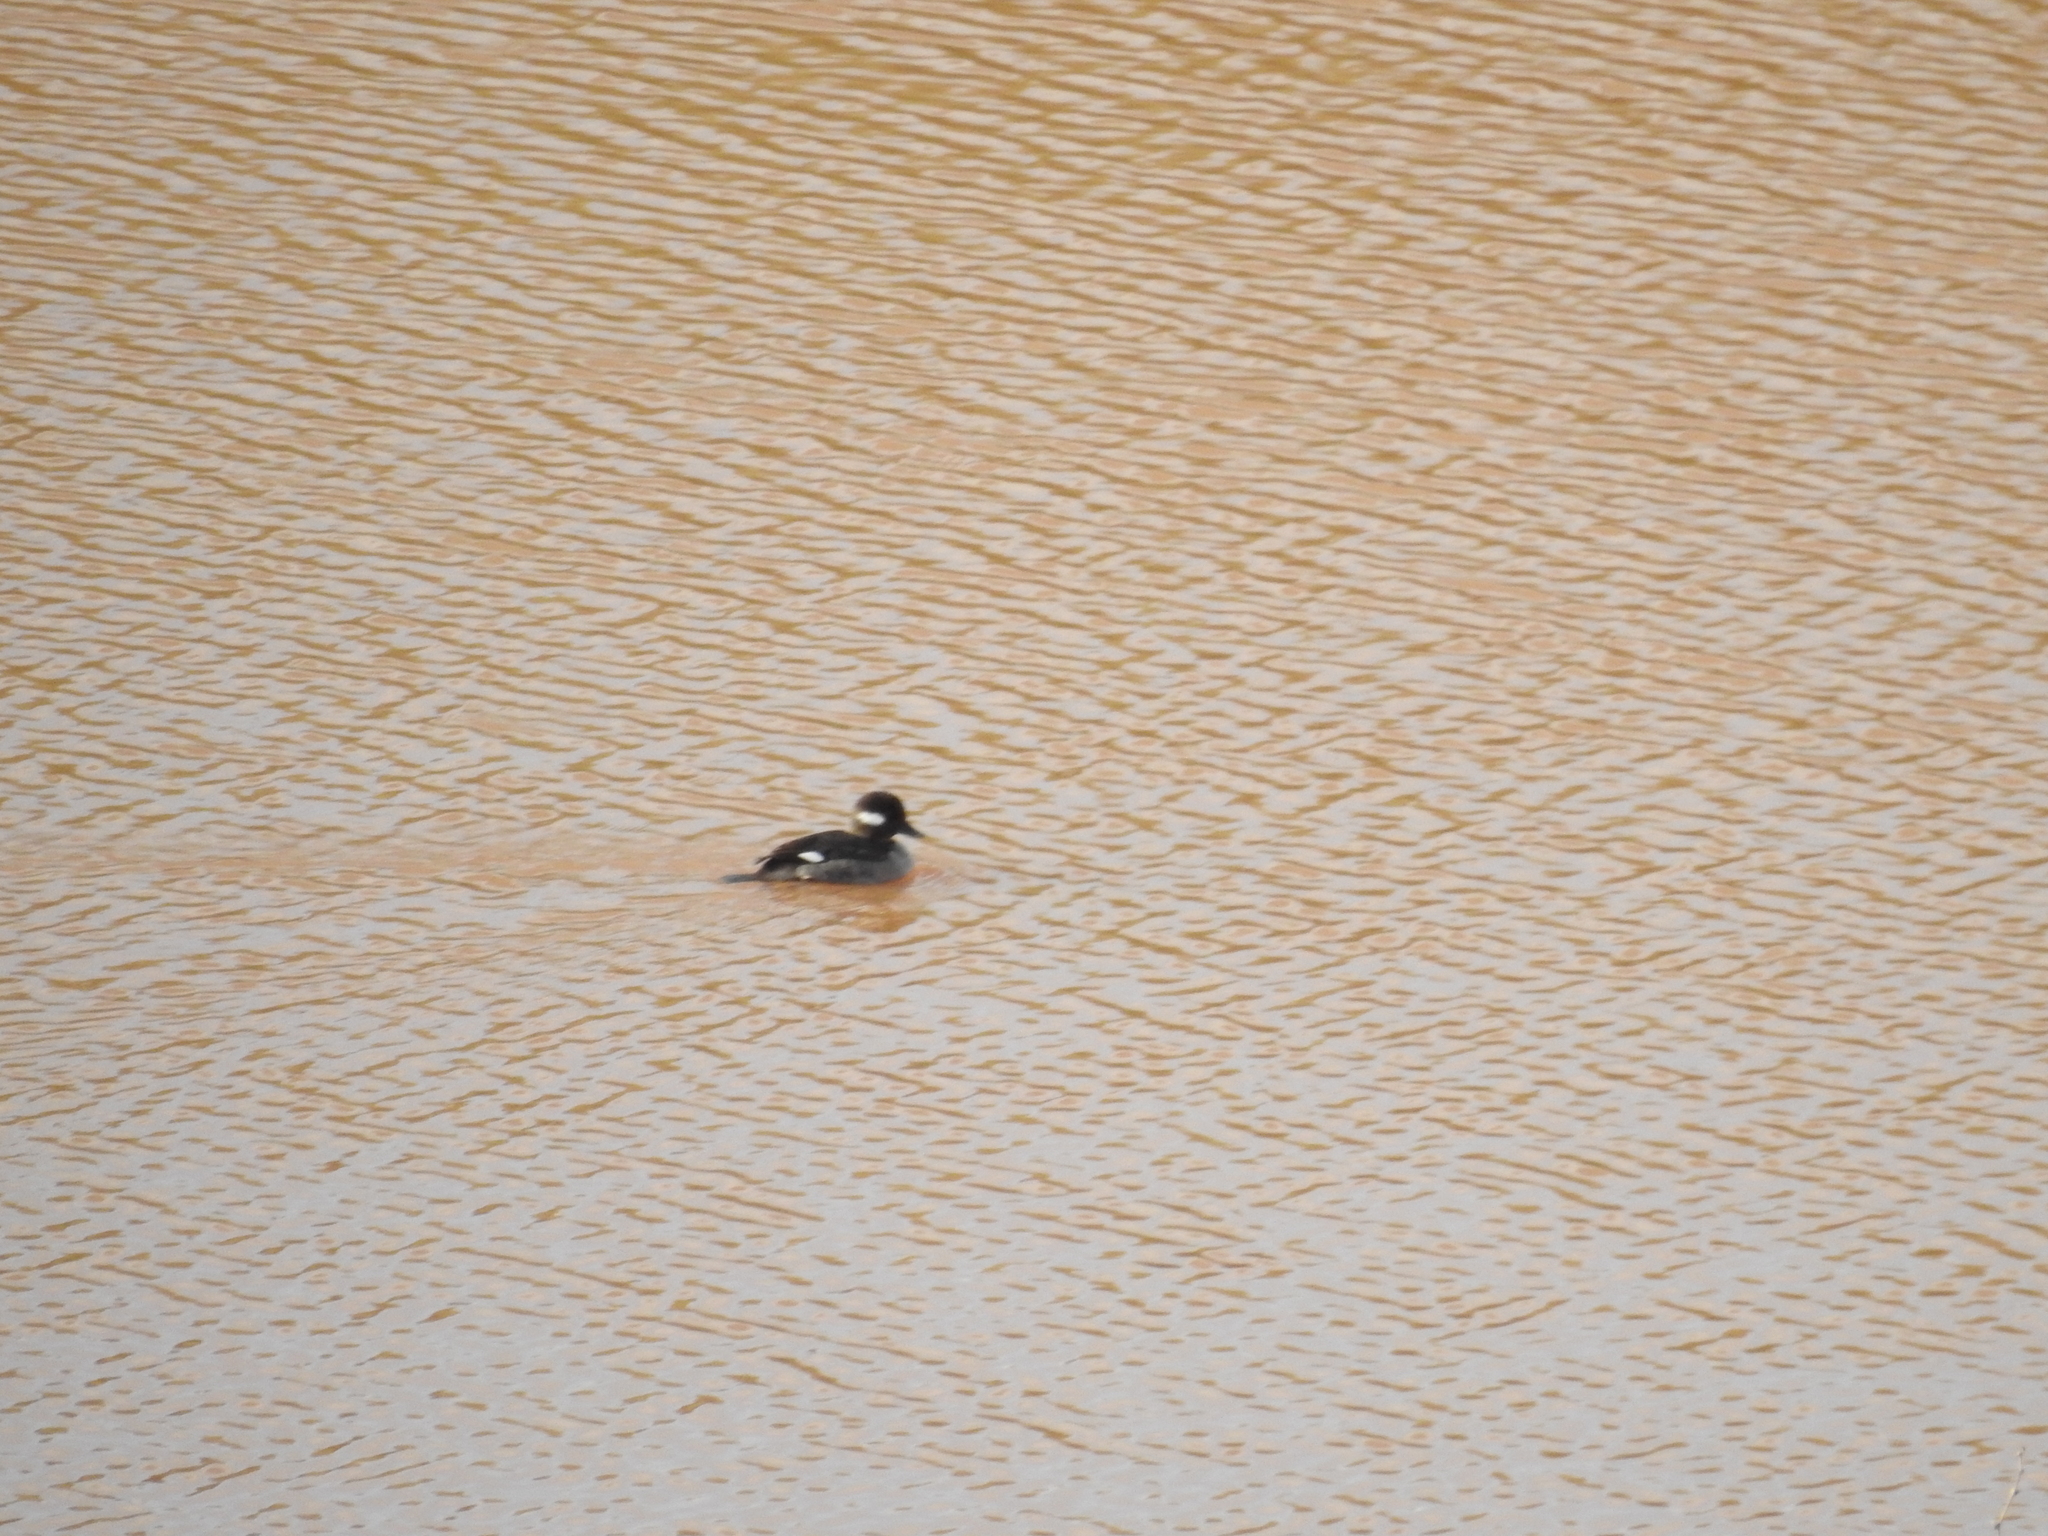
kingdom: Animalia
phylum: Chordata
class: Aves
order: Anseriformes
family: Anatidae
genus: Bucephala
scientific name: Bucephala albeola
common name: Bufflehead
